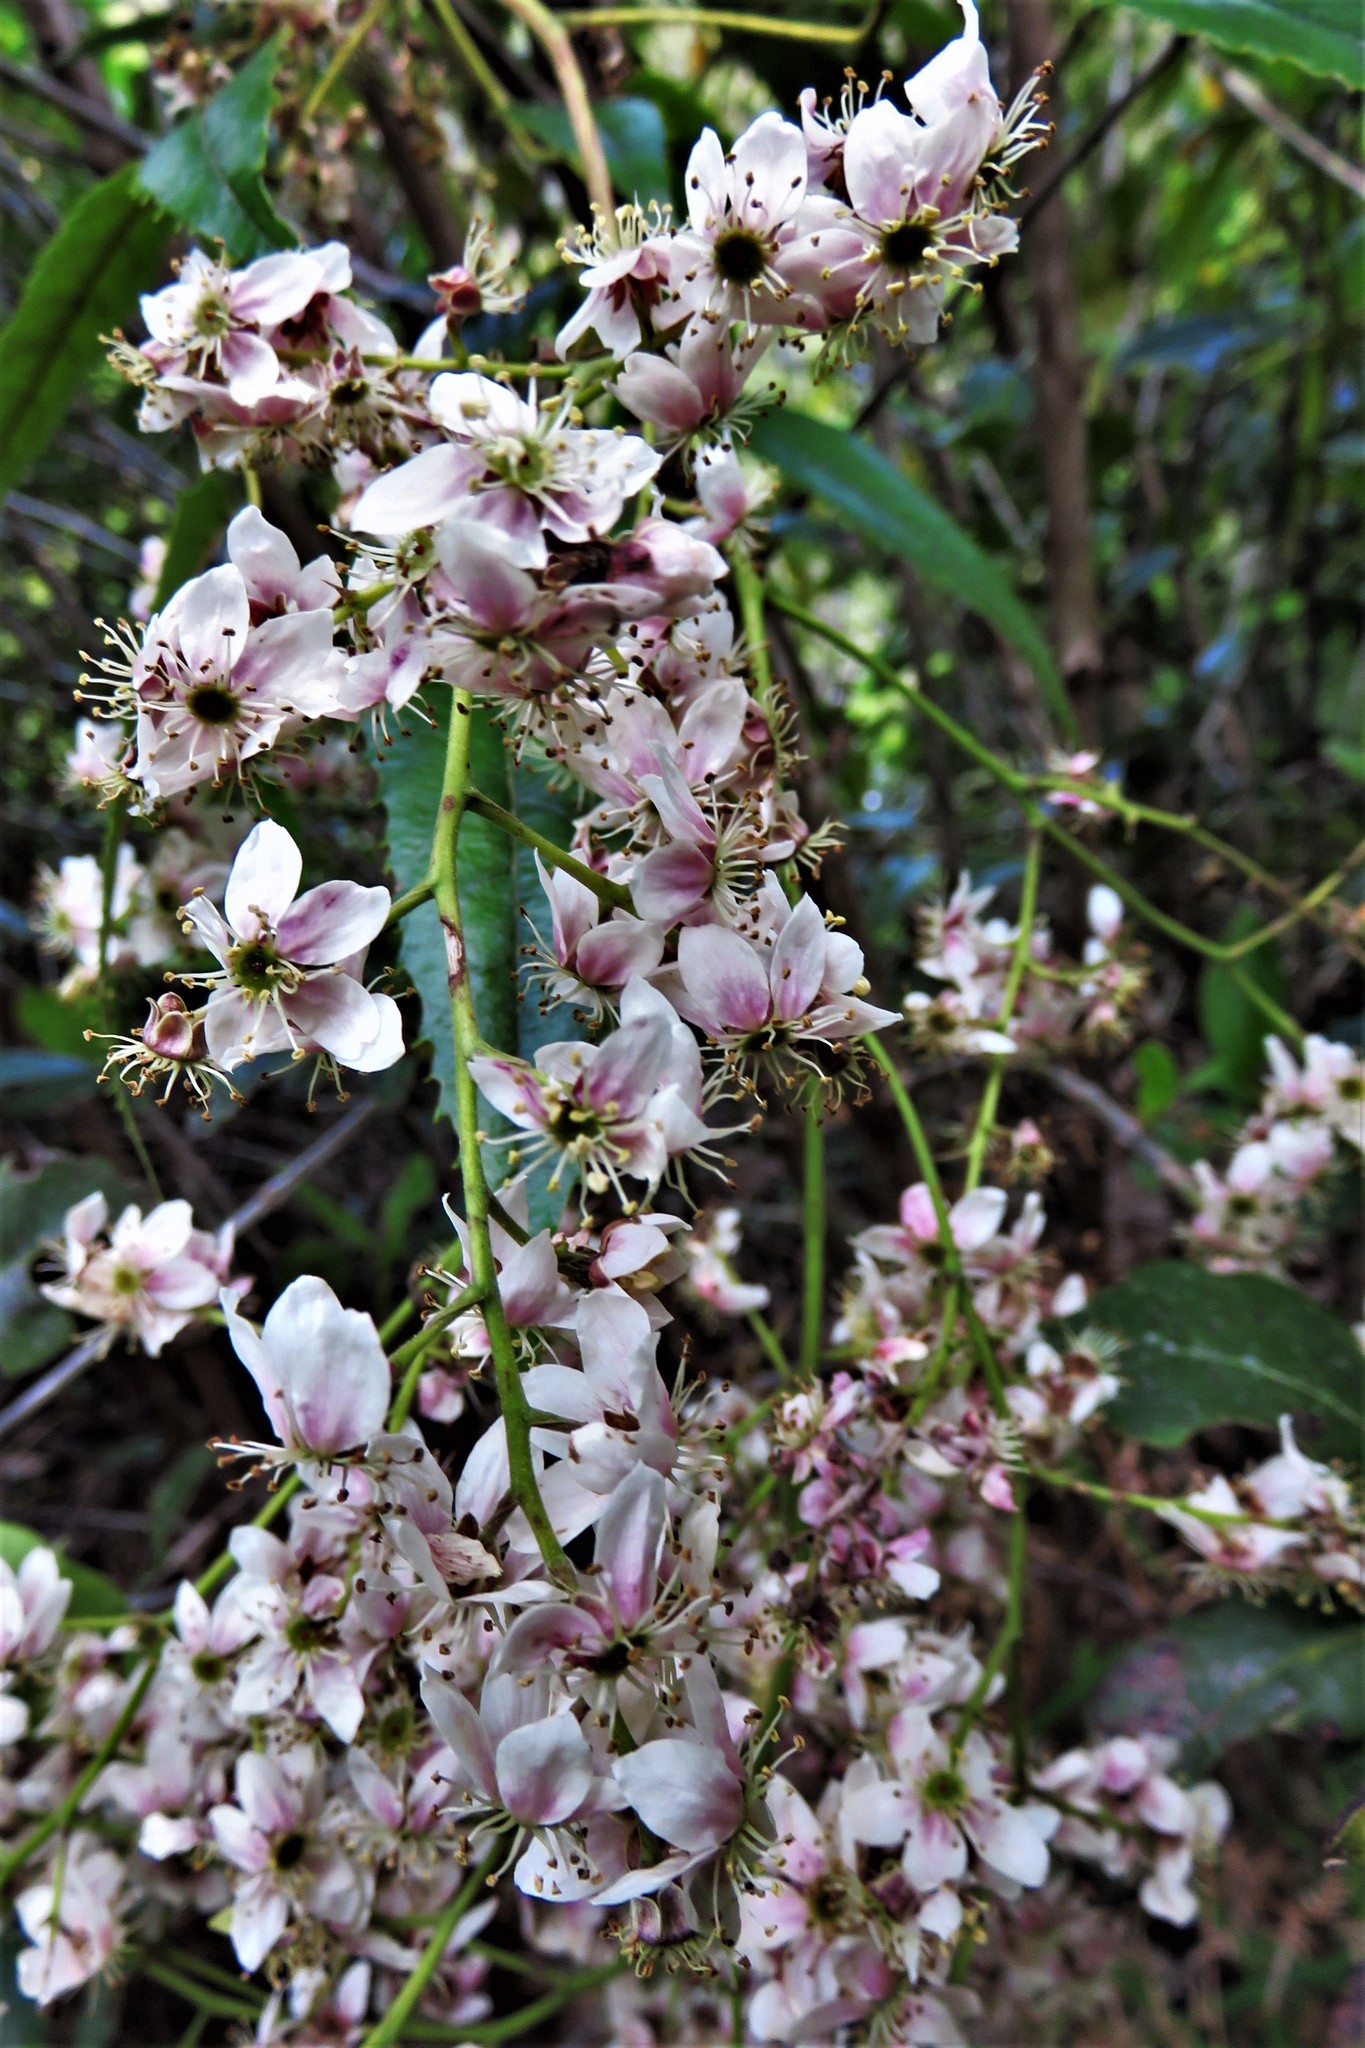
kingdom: Plantae
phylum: Tracheophyta
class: Magnoliopsida
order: Rosales
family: Rosaceae
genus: Rubus
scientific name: Rubus cissoides
